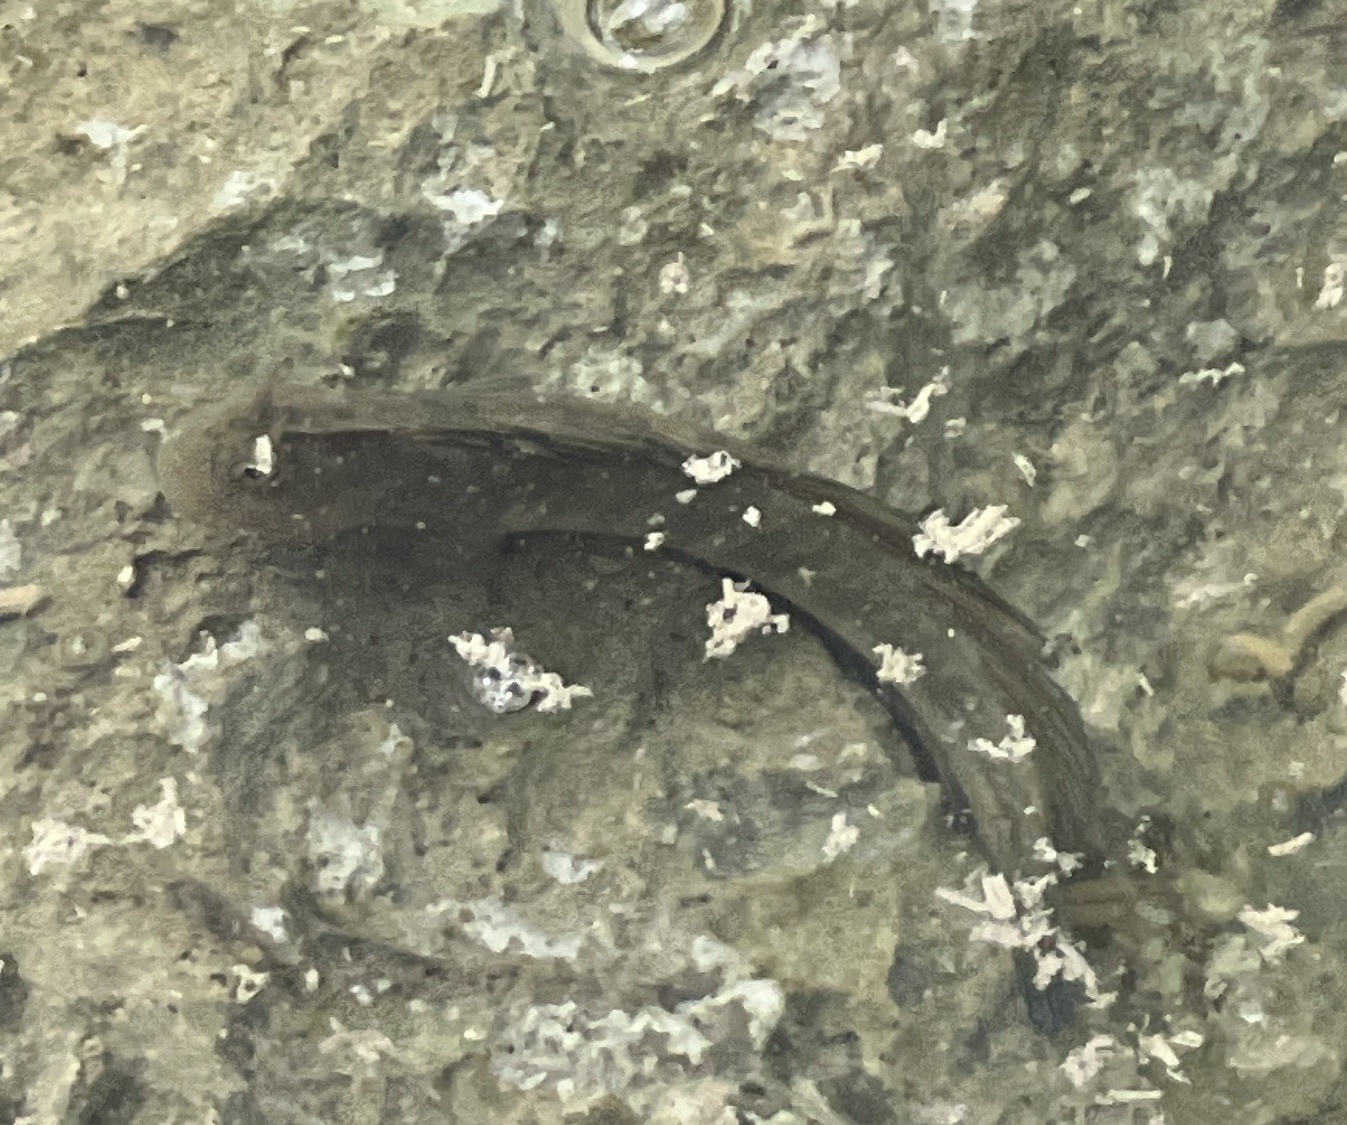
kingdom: Animalia
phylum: Chordata
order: Perciformes
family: Blenniidae
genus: Istiblennius
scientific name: Istiblennius zebra
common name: Zebra blenny
